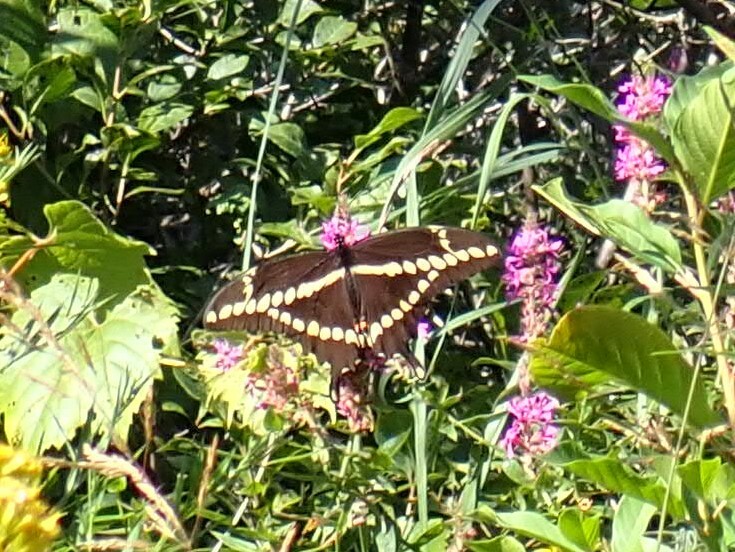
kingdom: Animalia
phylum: Arthropoda
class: Insecta
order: Lepidoptera
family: Papilionidae
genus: Papilio
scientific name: Papilio cresphontes
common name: Giant swallowtail
